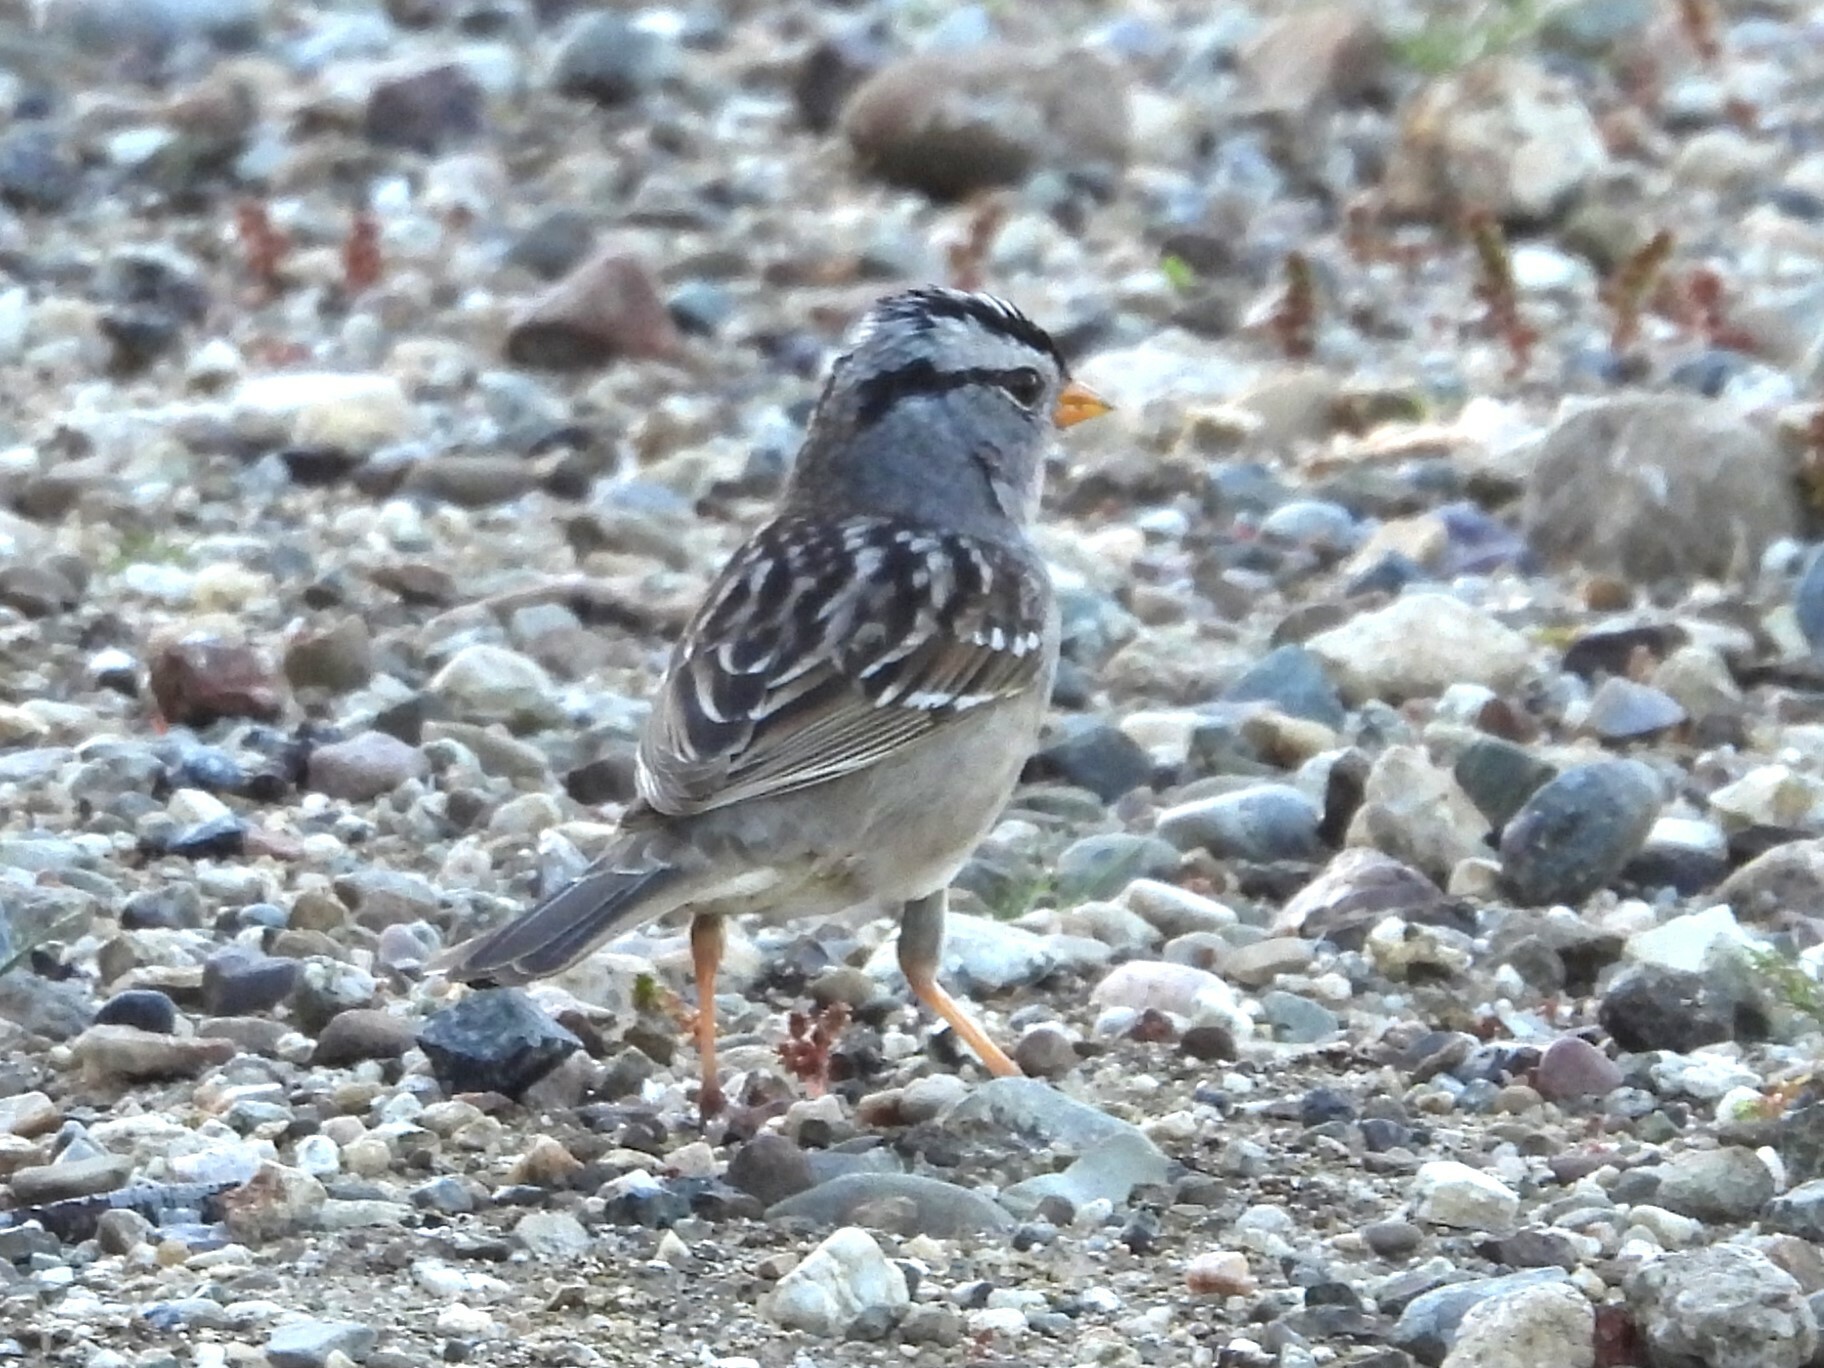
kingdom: Animalia
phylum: Chordata
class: Aves
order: Passeriformes
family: Passerellidae
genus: Zonotrichia
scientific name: Zonotrichia leucophrys
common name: White-crowned sparrow
